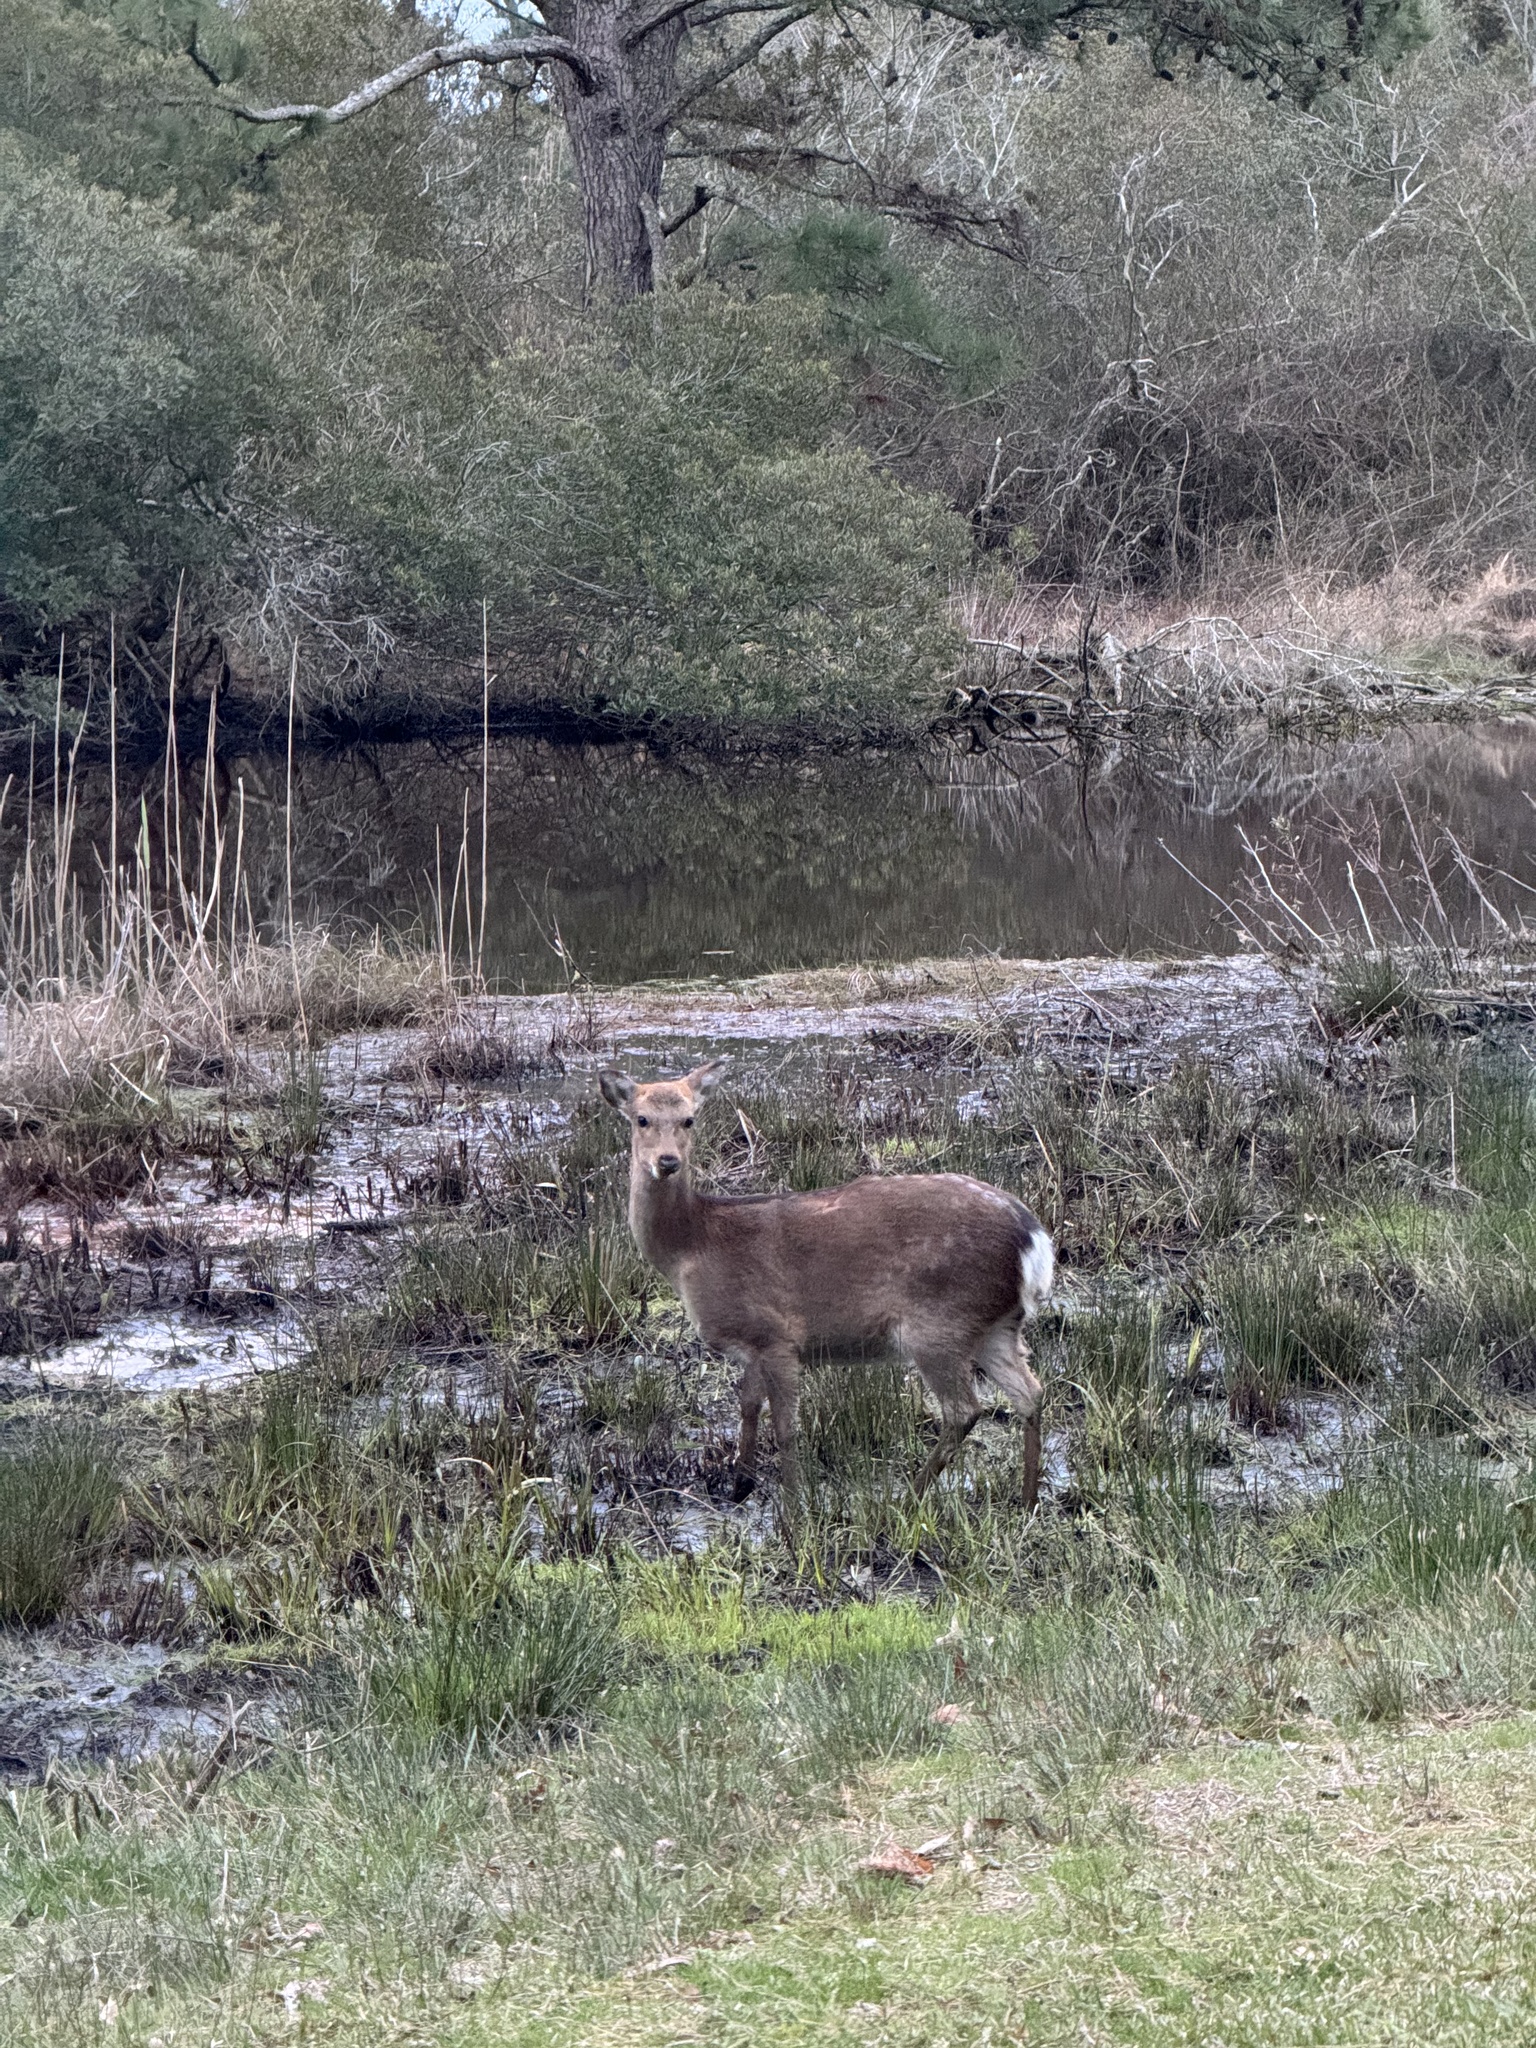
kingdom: Animalia
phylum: Chordata
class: Mammalia
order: Artiodactyla
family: Cervidae
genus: Cervus
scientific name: Cervus nippon
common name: Sika deer
